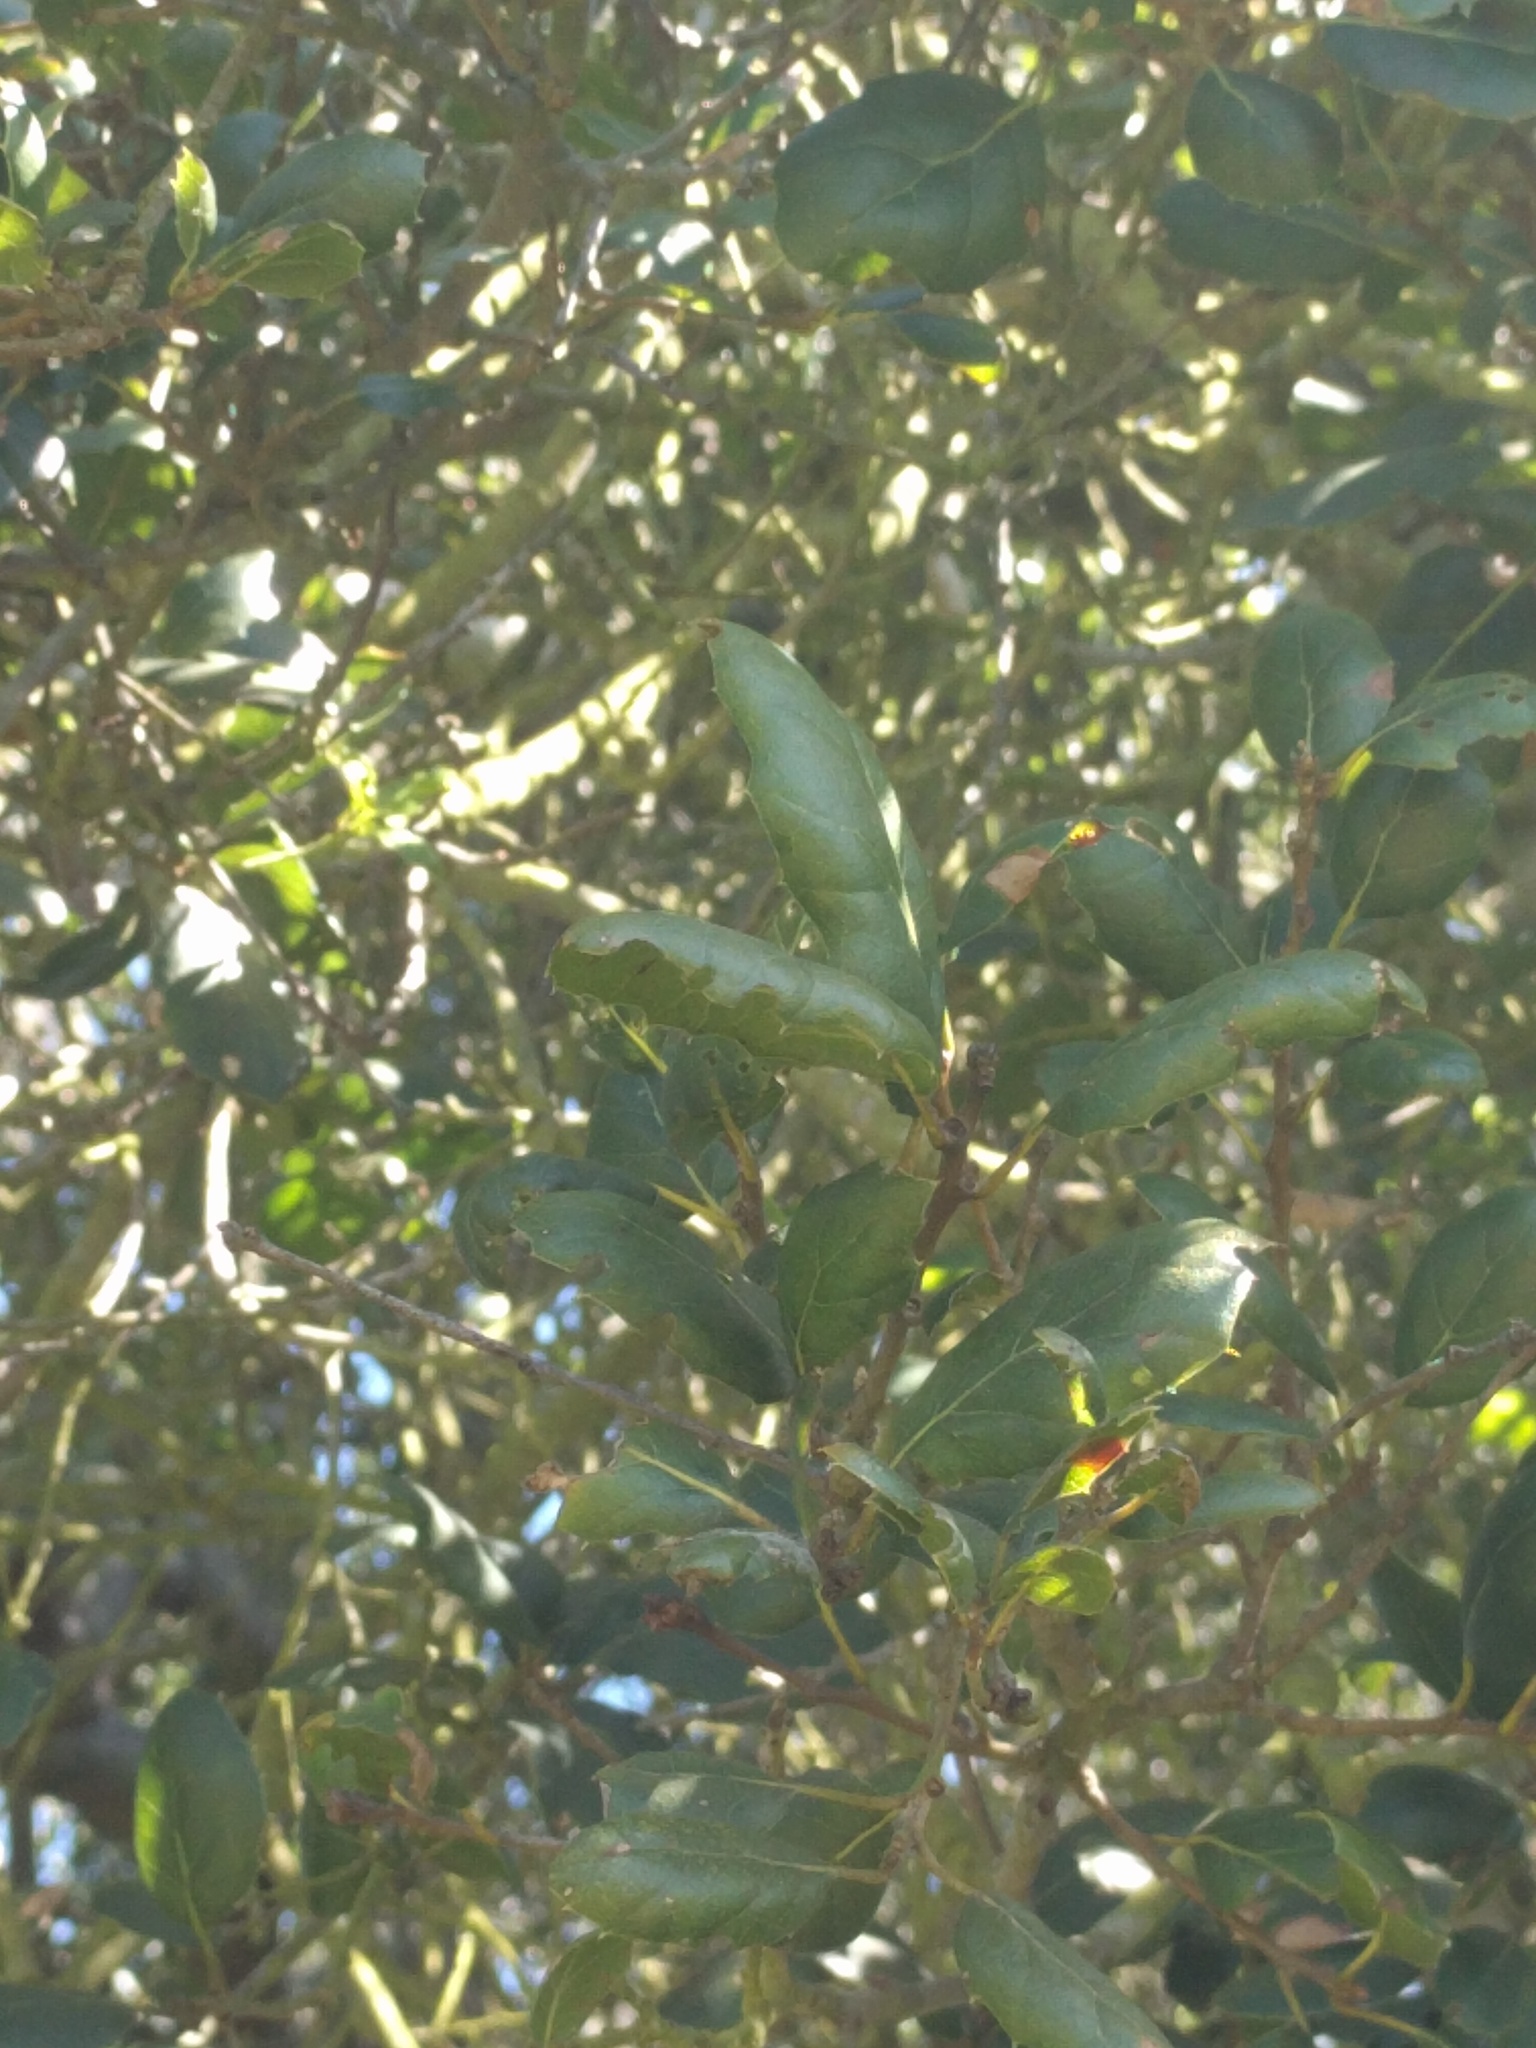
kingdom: Plantae
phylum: Tracheophyta
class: Magnoliopsida
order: Fagales
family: Fagaceae
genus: Quercus
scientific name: Quercus agrifolia
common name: California live oak
